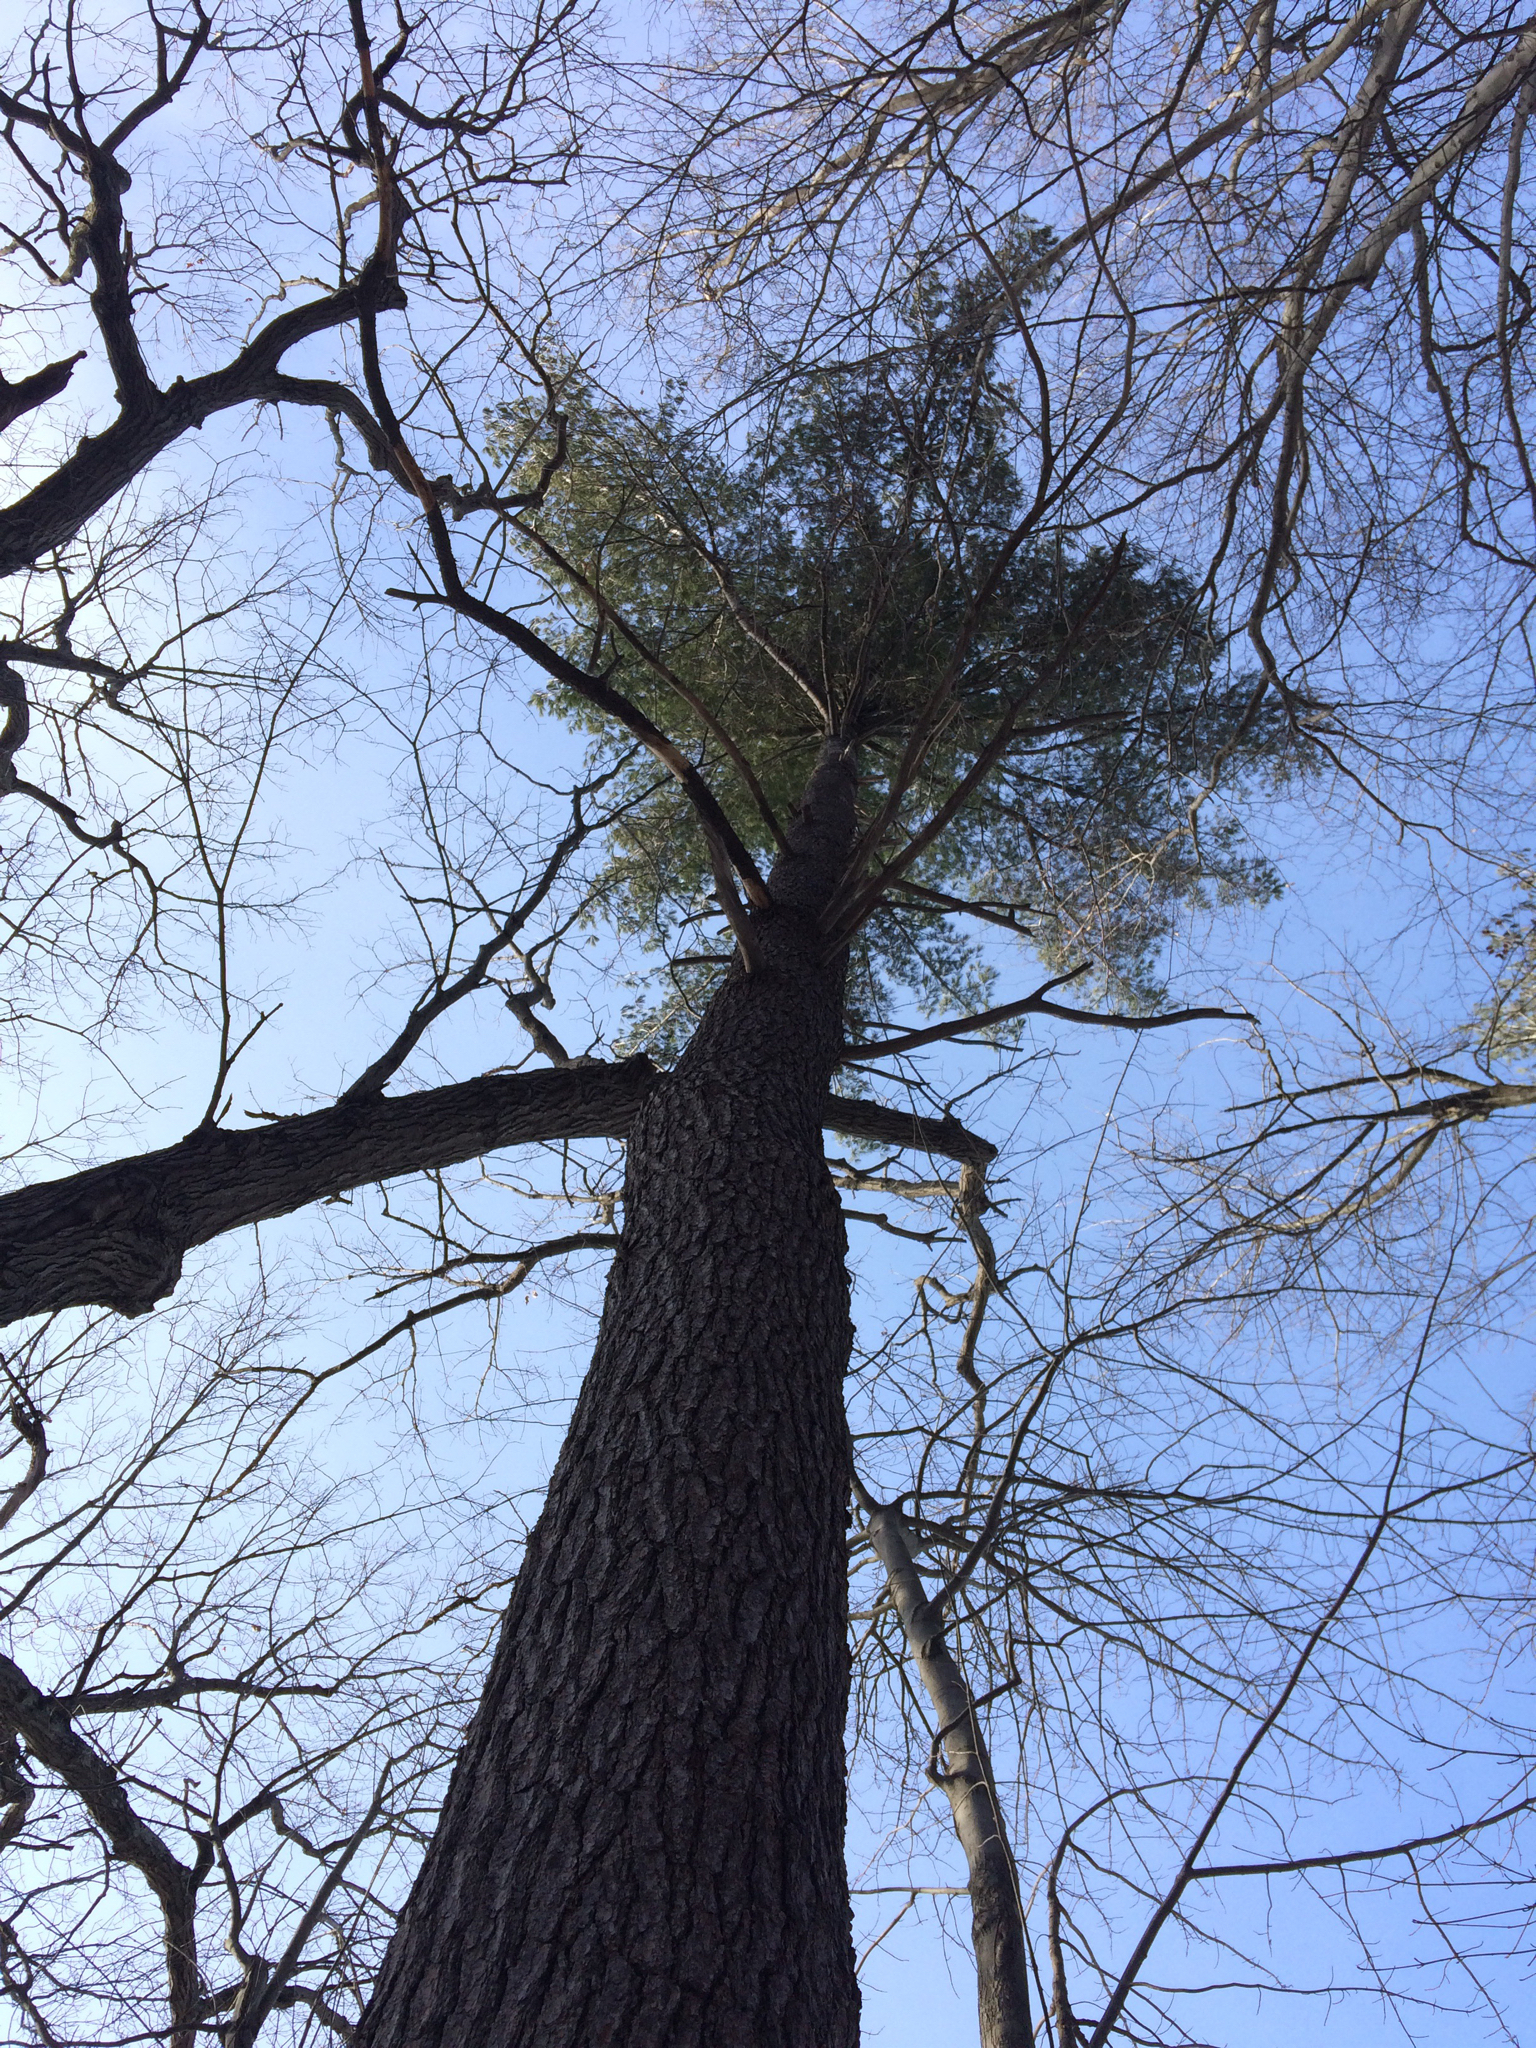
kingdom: Plantae
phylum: Tracheophyta
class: Pinopsida
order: Pinales
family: Pinaceae
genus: Pinus
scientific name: Pinus strobus
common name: Weymouth pine
